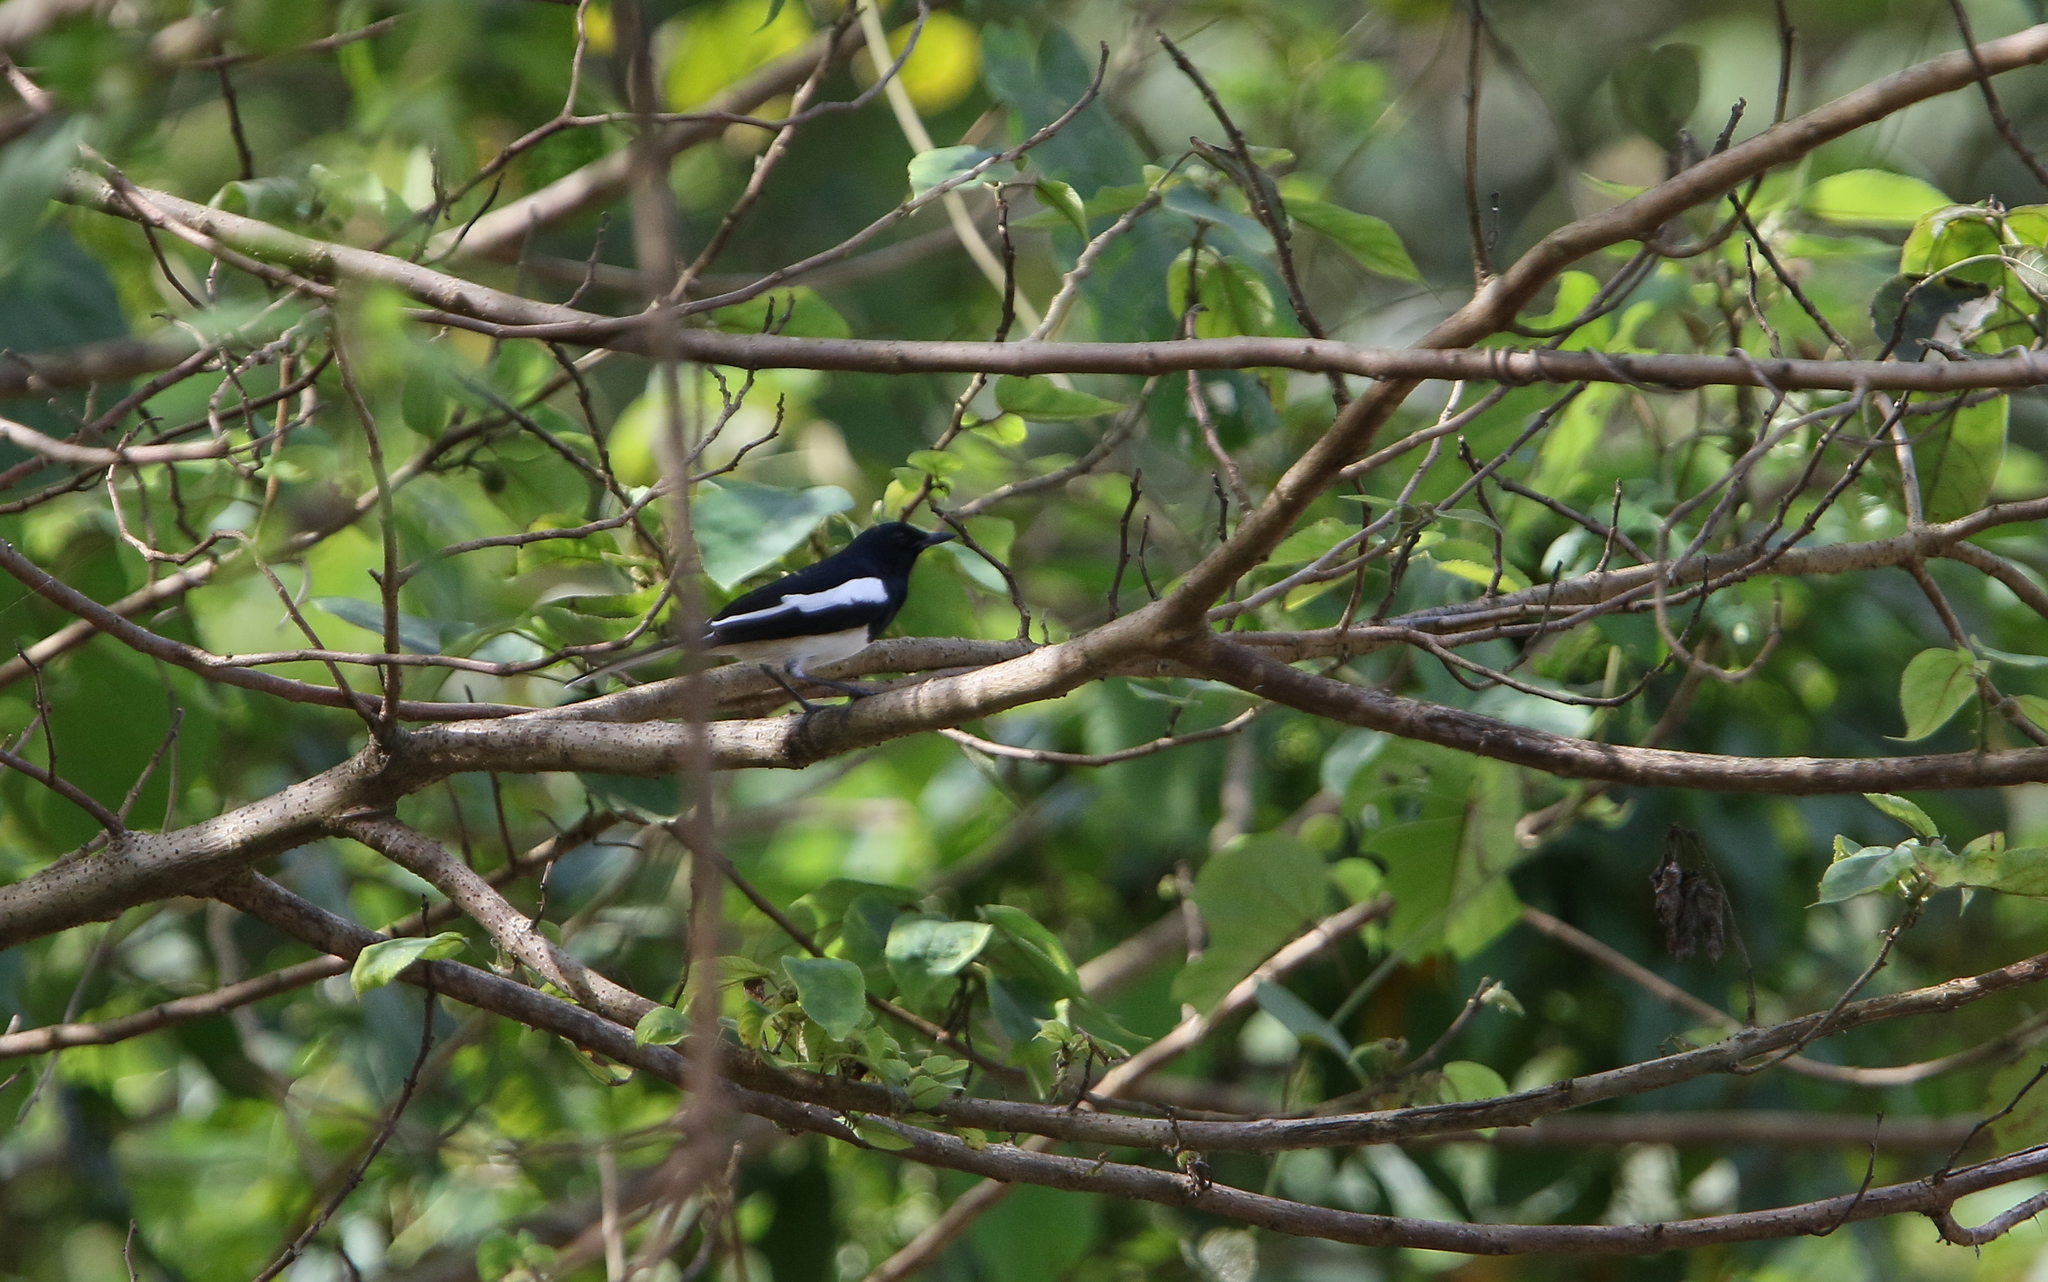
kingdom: Animalia
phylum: Chordata
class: Aves
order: Passeriformes
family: Muscicapidae
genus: Copsychus
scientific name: Copsychus saularis
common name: Oriental magpie-robin
